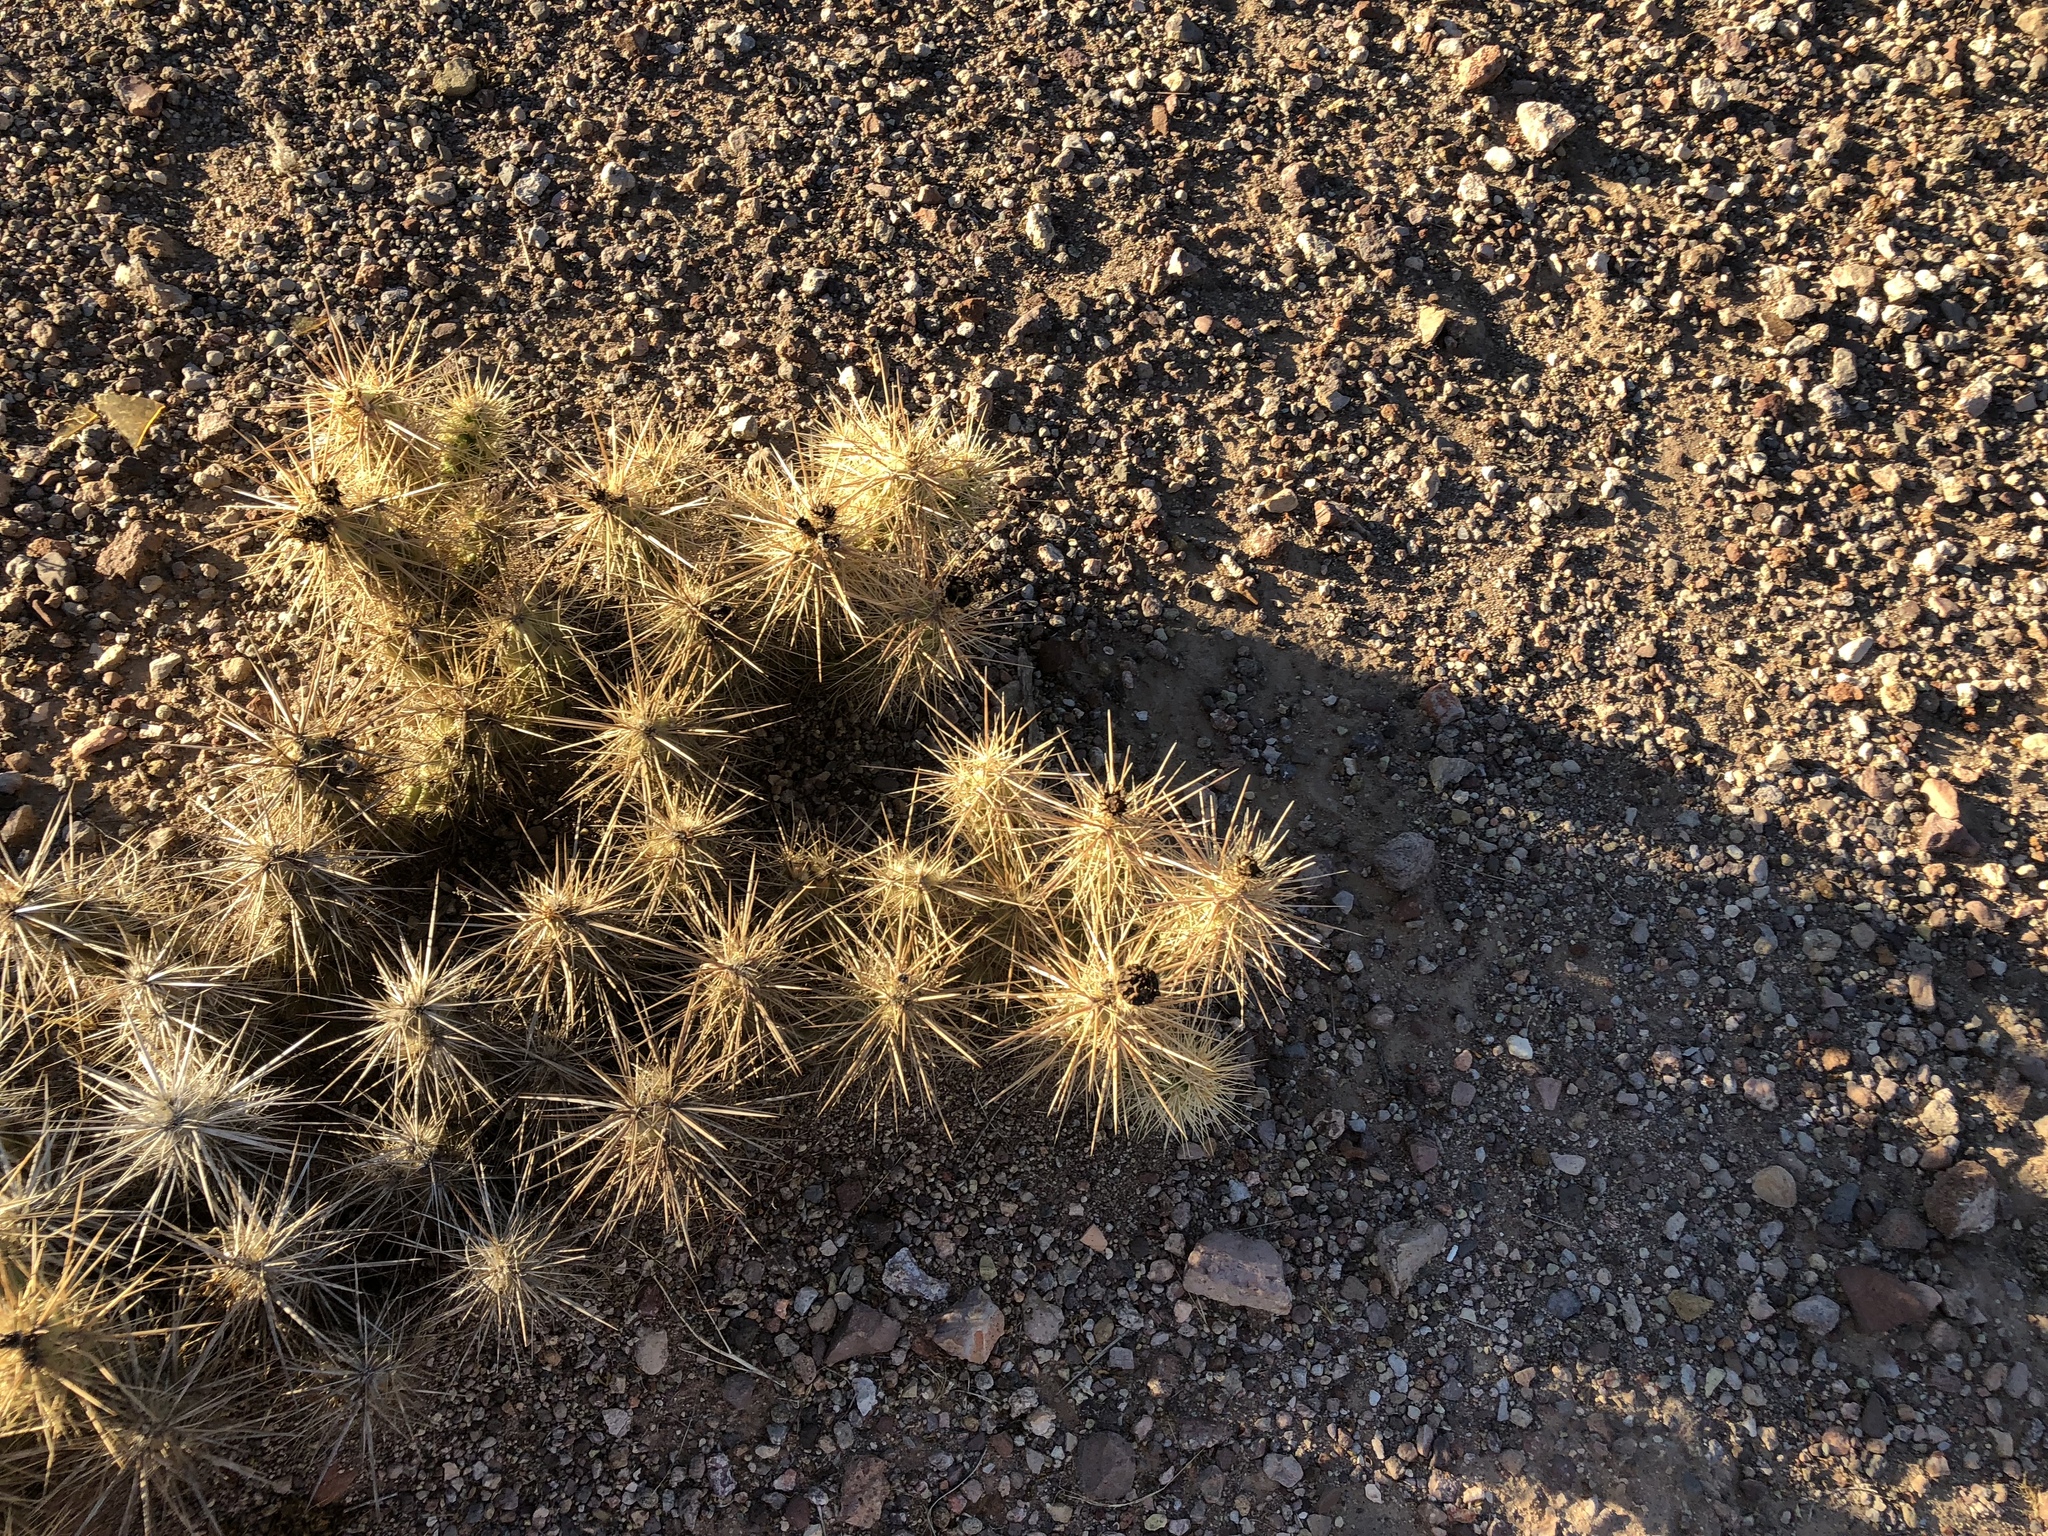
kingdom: Plantae
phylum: Tracheophyta
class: Magnoliopsida
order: Caryophyllales
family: Cactaceae
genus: Grusonia
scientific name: Grusonia emoryi
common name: Stanly's club cholla
